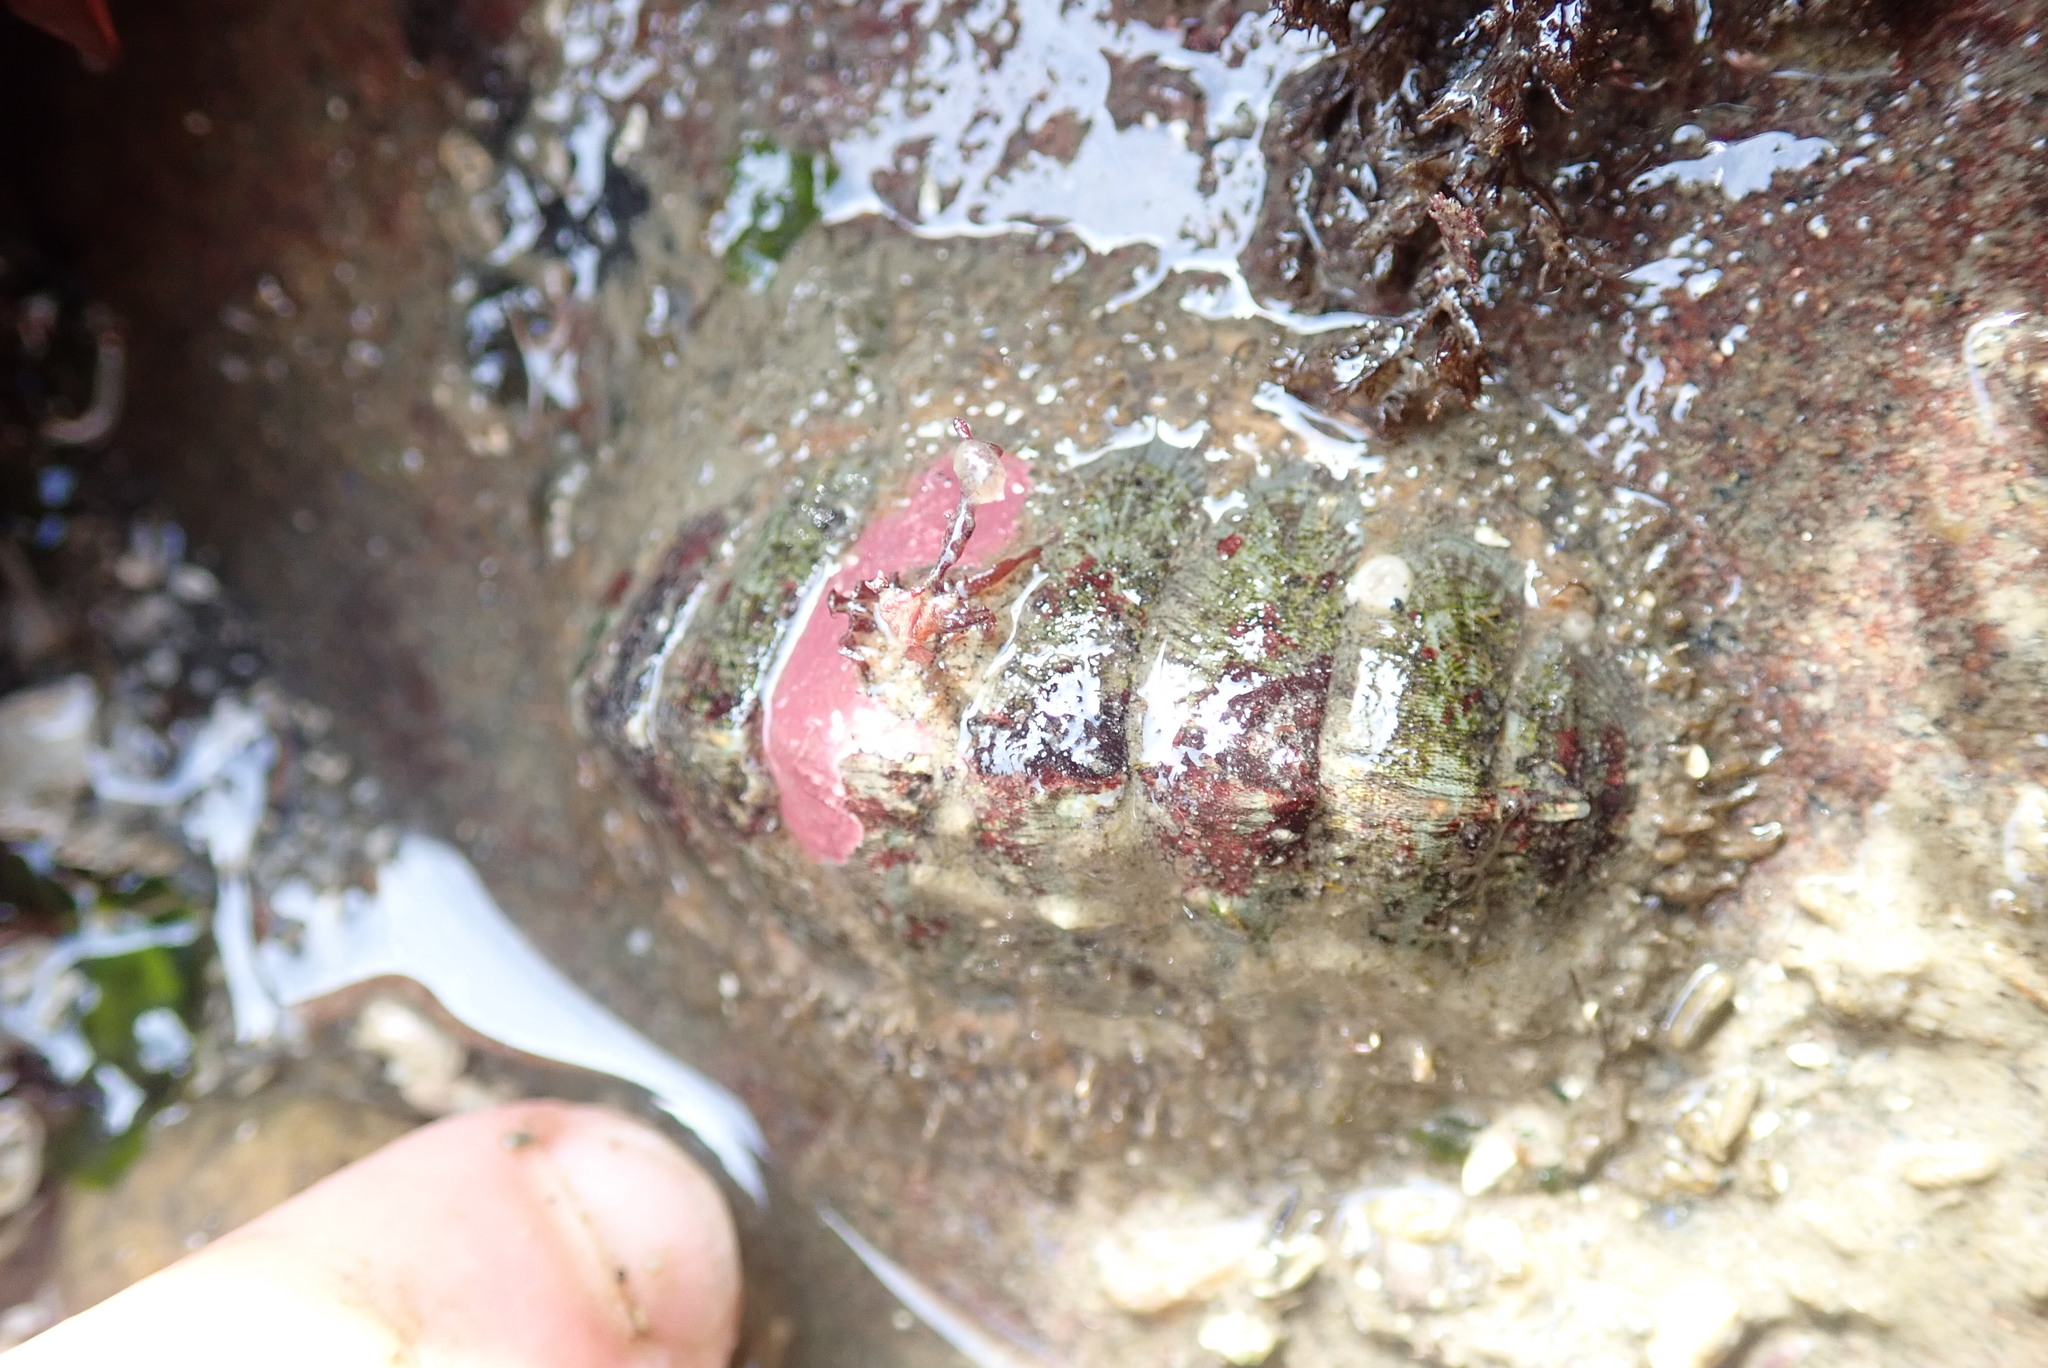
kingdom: Animalia
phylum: Mollusca
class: Polyplacophora
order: Chitonida
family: Mopaliidae
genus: Mopalia
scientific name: Mopalia lignosa
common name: Woody chiton
